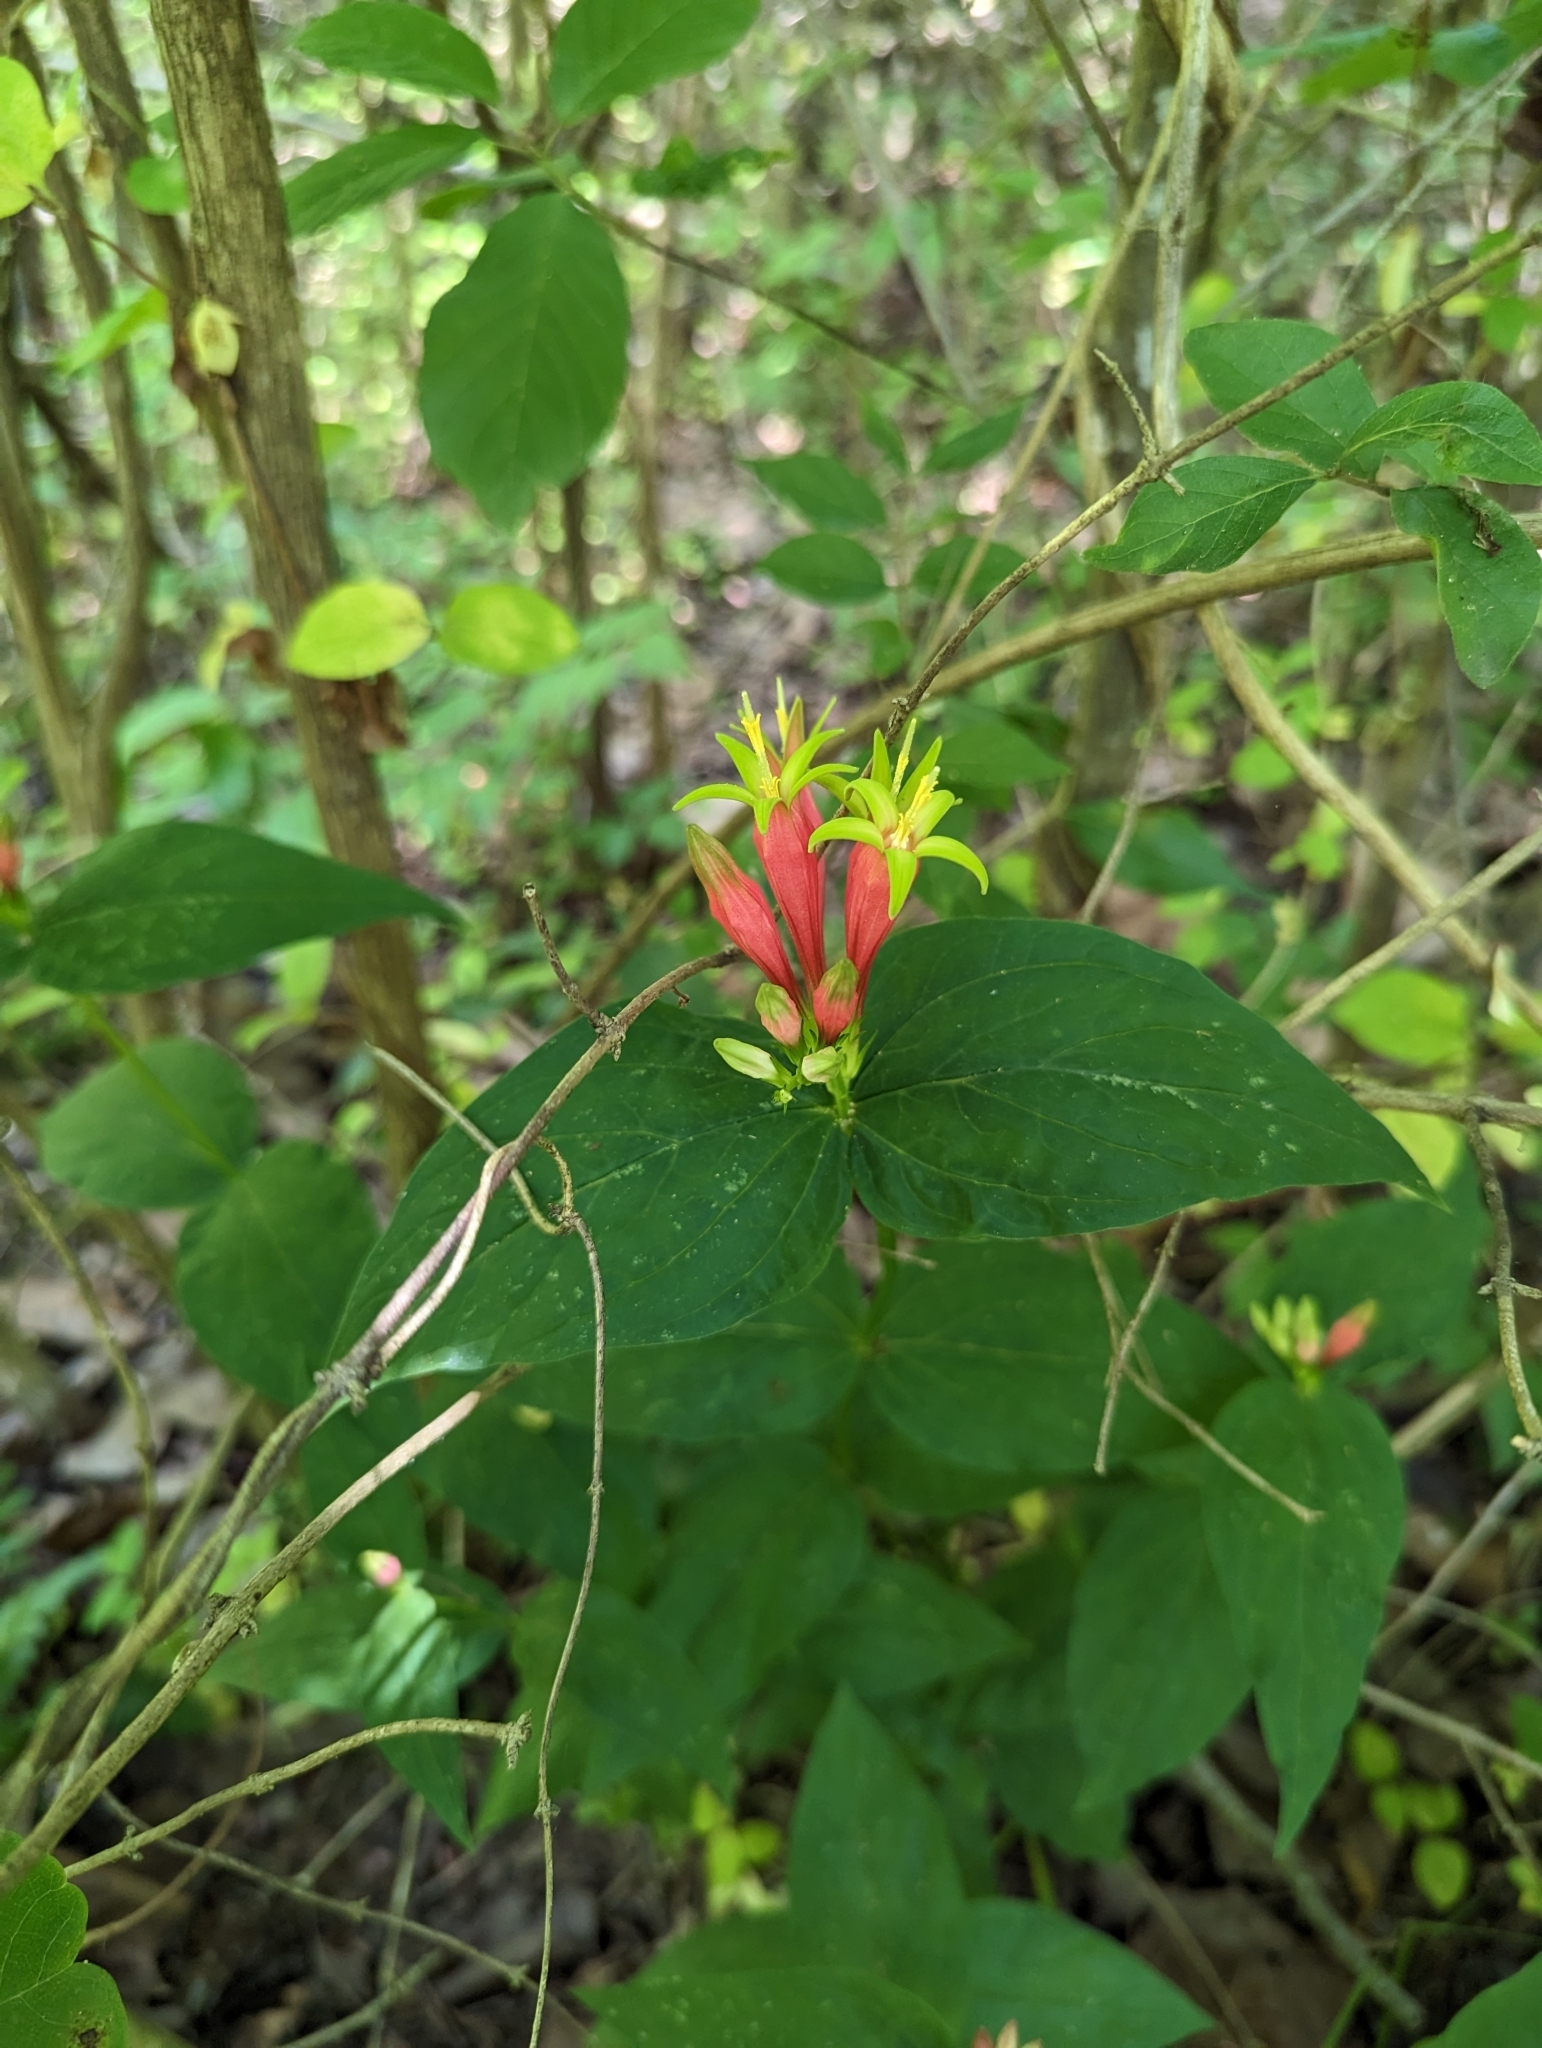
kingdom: Plantae
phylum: Tracheophyta
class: Magnoliopsida
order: Gentianales
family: Loganiaceae
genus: Spigelia
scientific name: Spigelia marilandica
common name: Indian-pink
